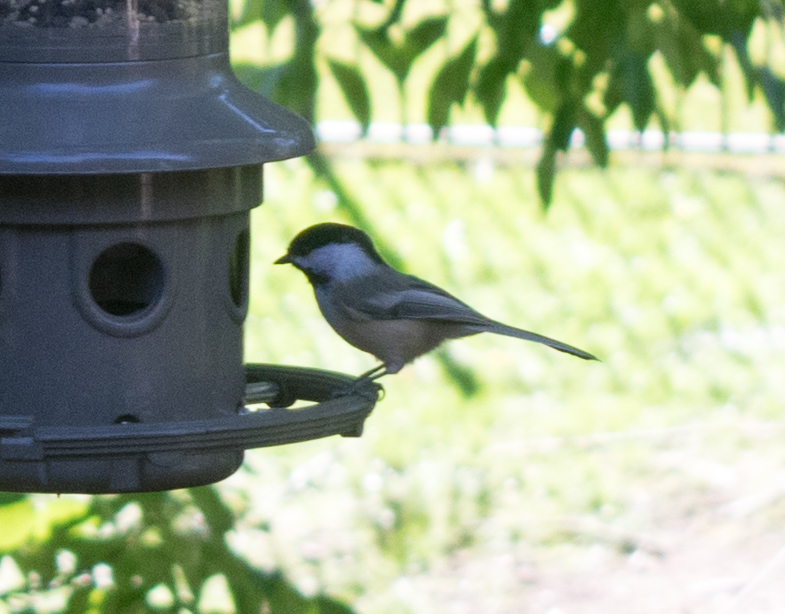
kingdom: Animalia
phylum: Chordata
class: Aves
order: Passeriformes
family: Paridae
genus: Poecile
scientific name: Poecile atricapillus
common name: Black-capped chickadee
